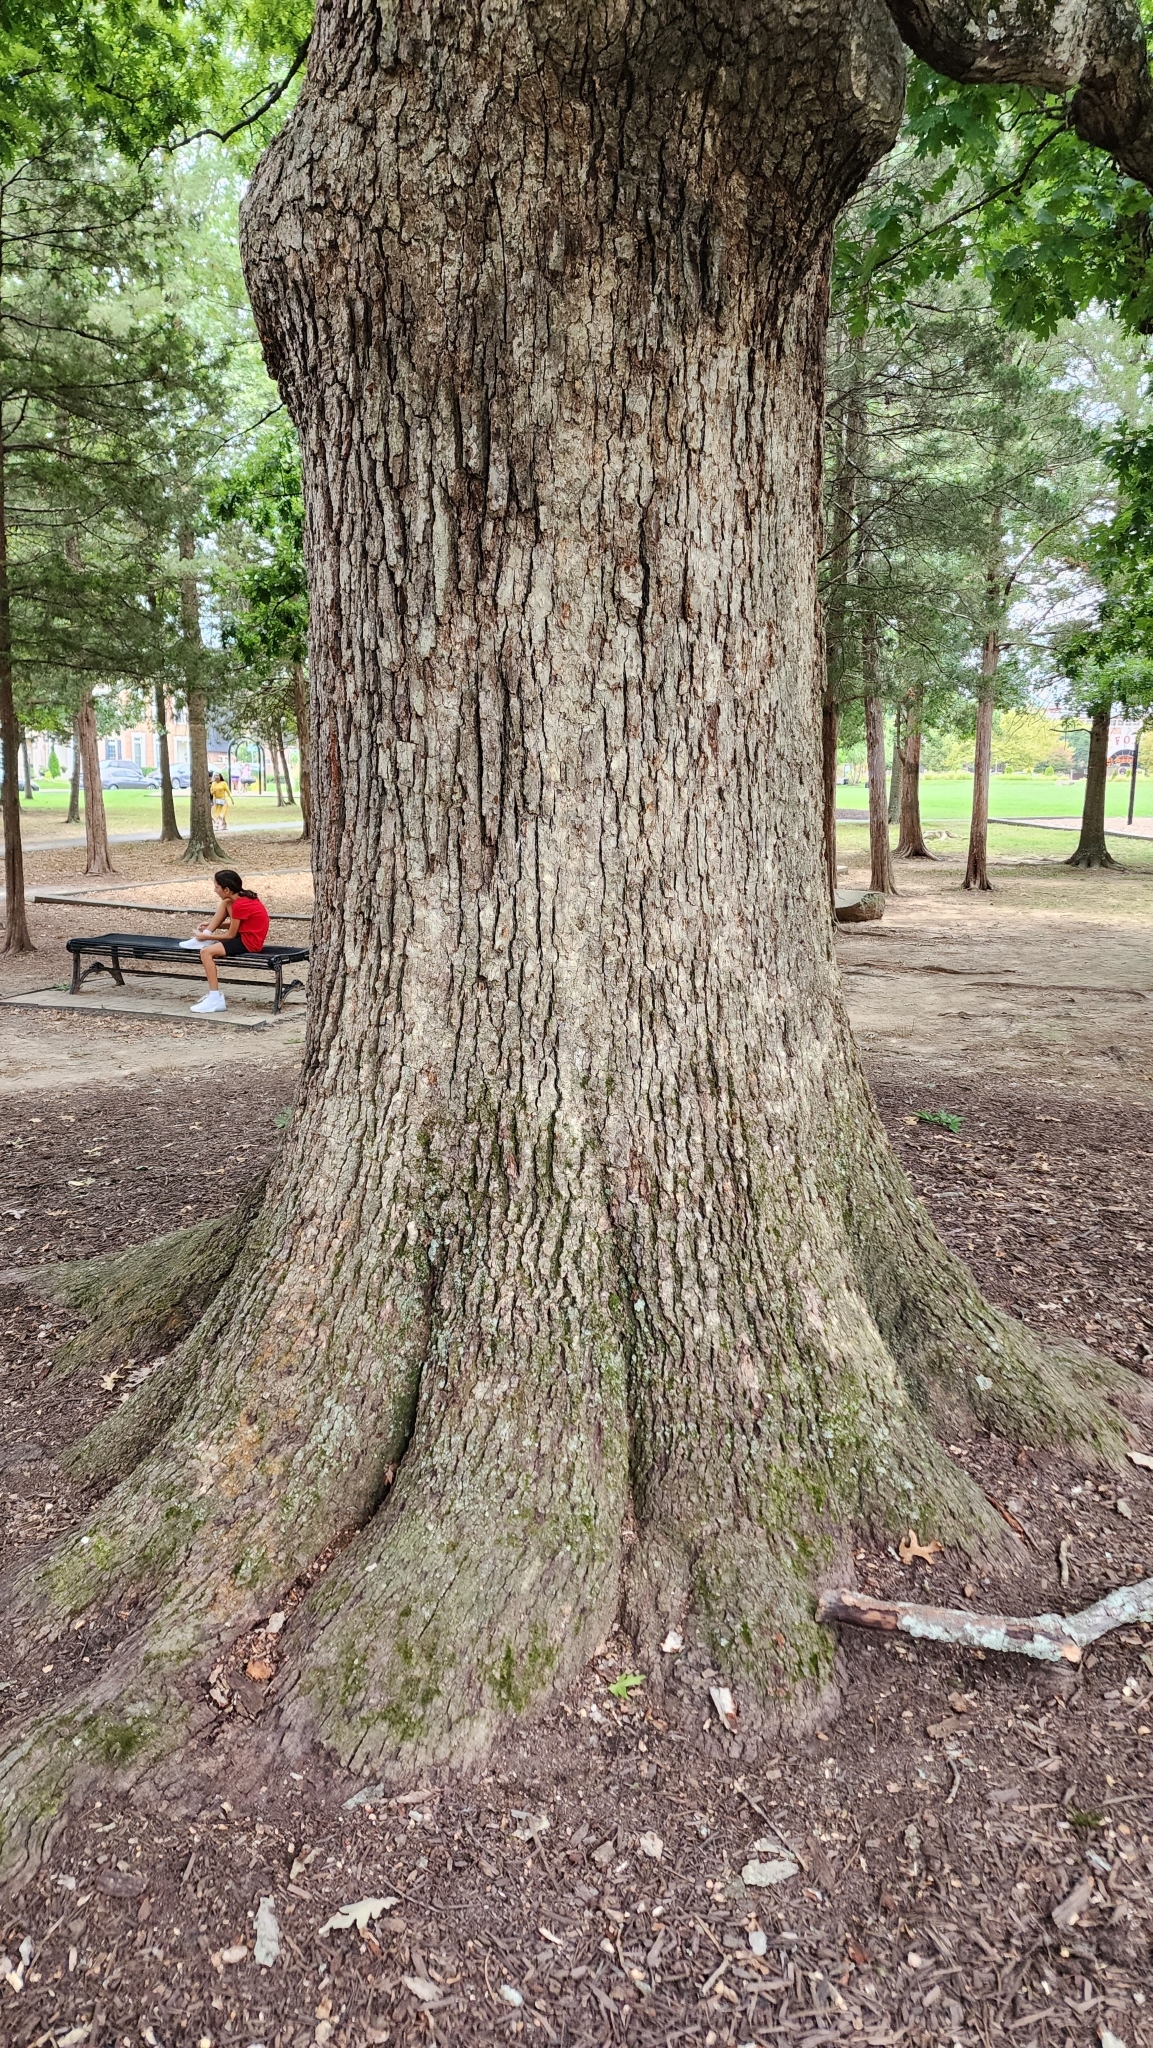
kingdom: Plantae
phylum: Tracheophyta
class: Magnoliopsida
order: Fagales
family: Fagaceae
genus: Quercus
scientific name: Quercus alba
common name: White oak
